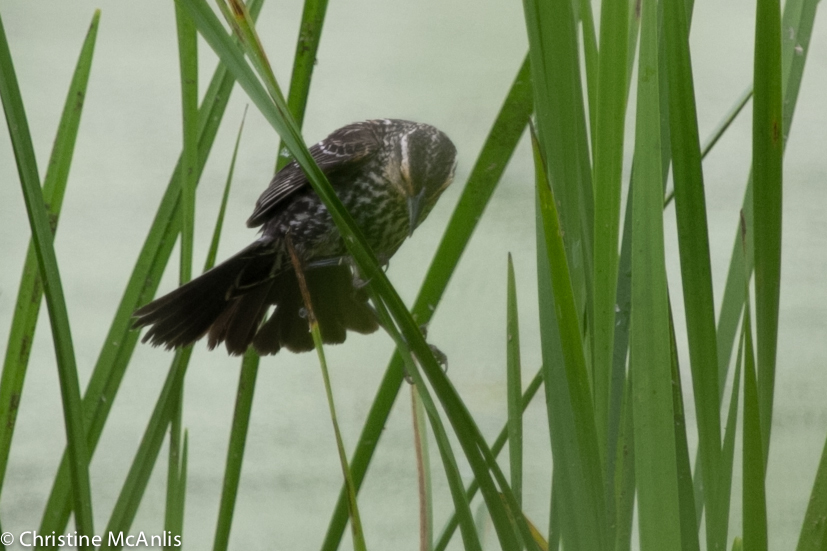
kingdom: Animalia
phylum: Chordata
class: Aves
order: Passeriformes
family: Icteridae
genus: Agelaius
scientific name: Agelaius phoeniceus
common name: Red-winged blackbird
